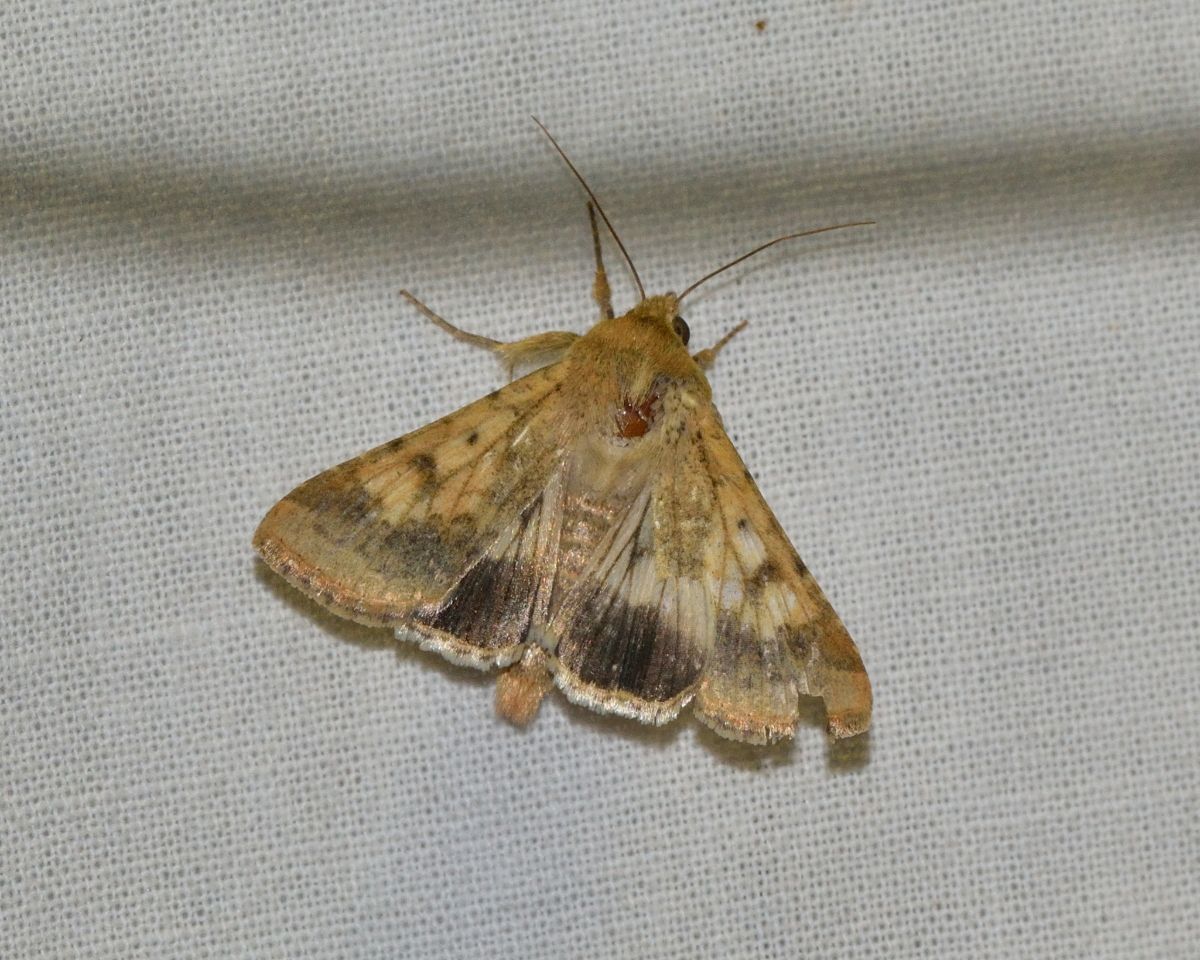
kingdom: Animalia
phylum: Arthropoda
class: Insecta
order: Lepidoptera
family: Noctuidae
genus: Helicoverpa
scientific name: Helicoverpa armigera
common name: Cotton bollworm
